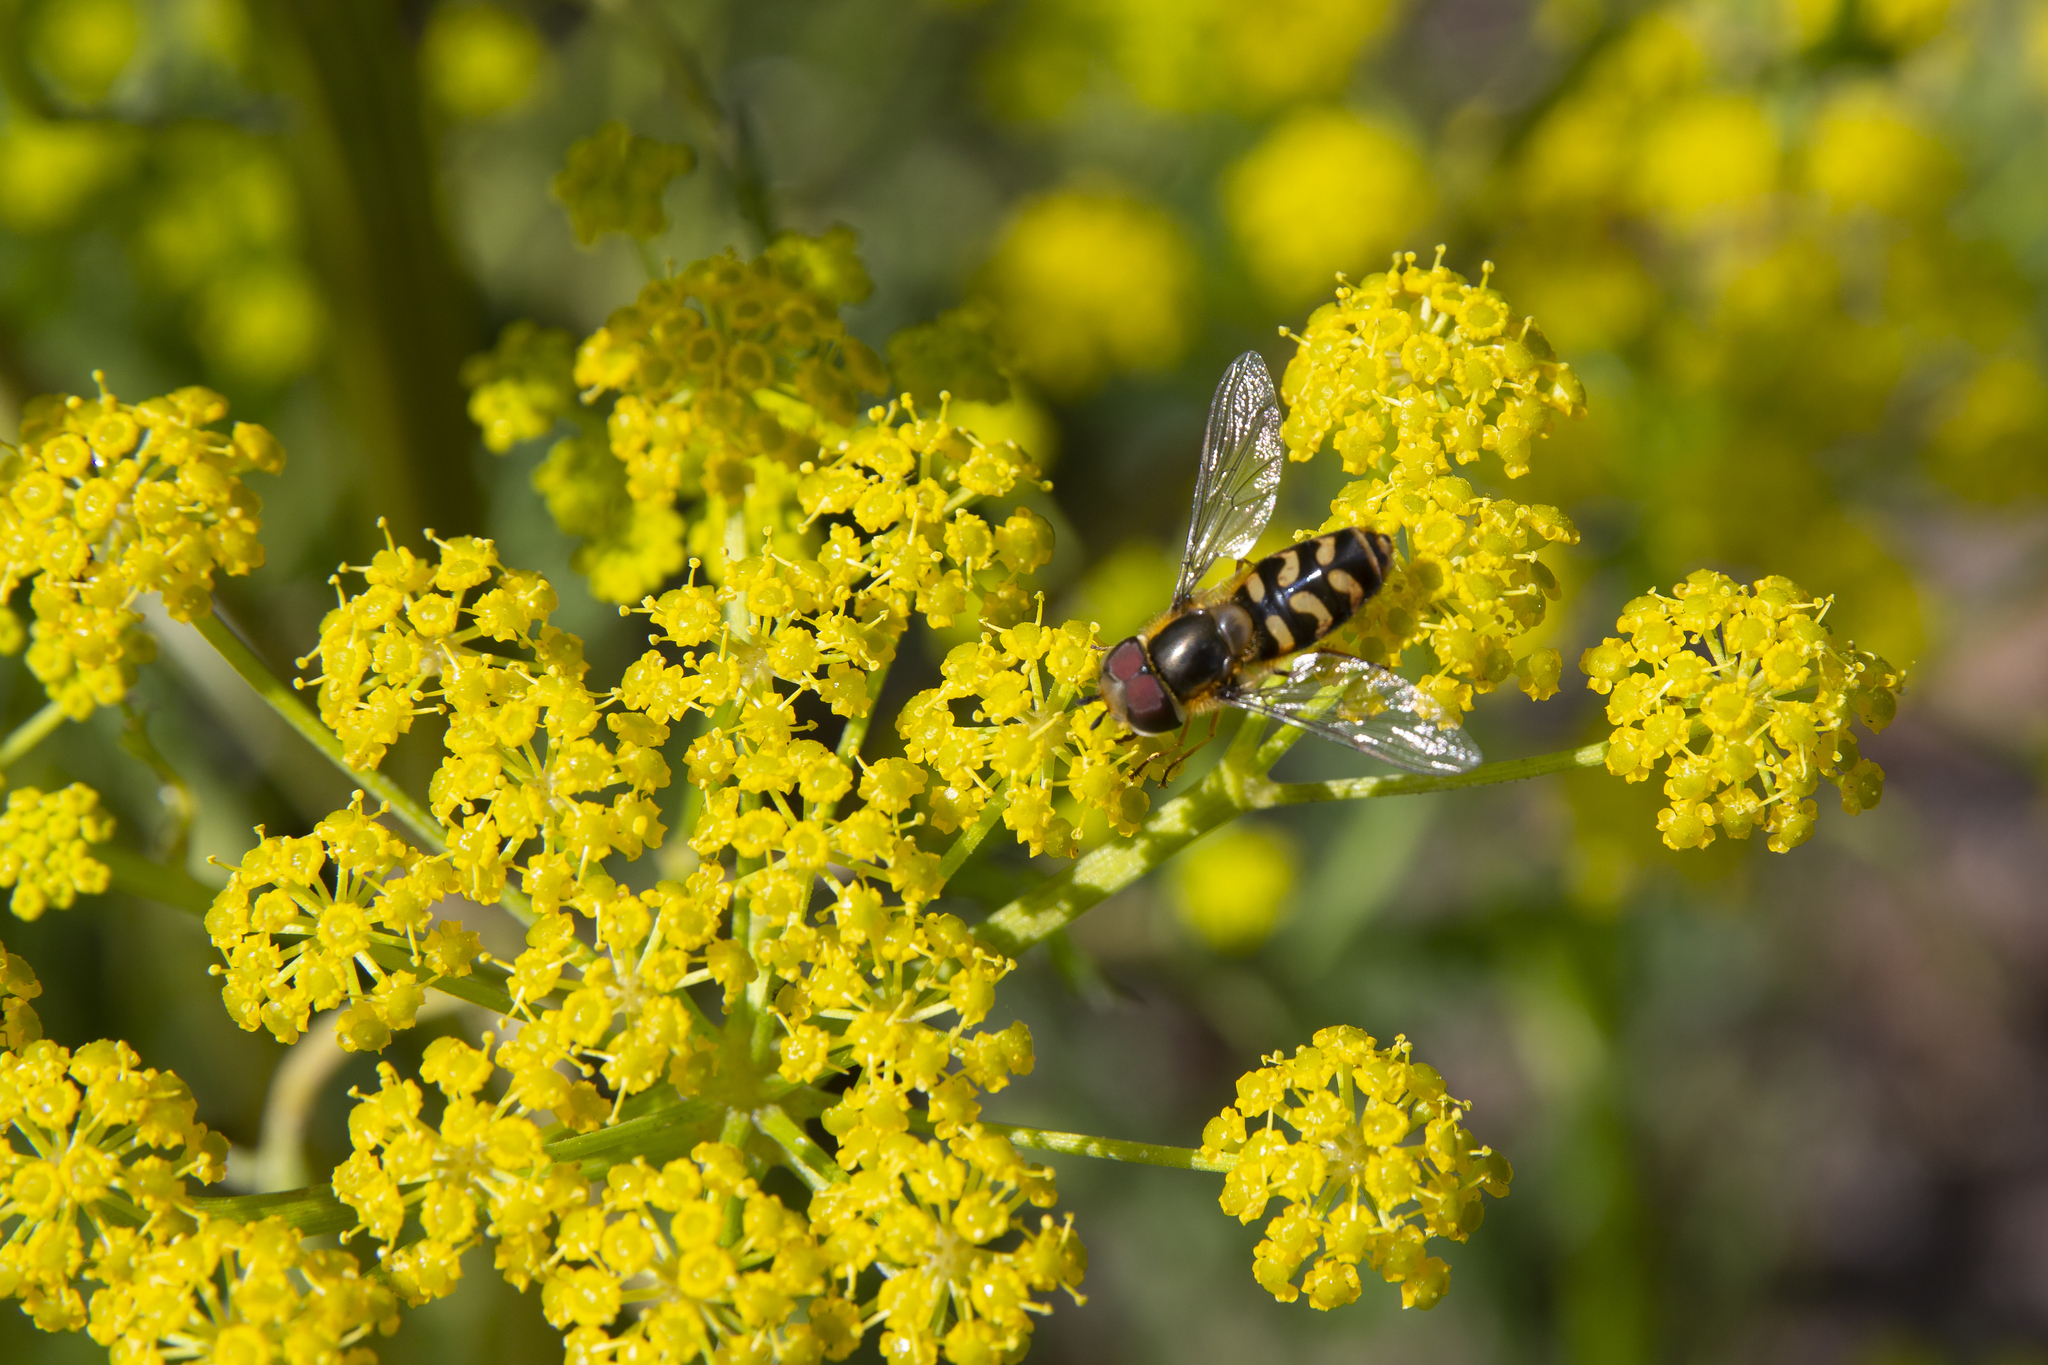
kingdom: Animalia
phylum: Arthropoda
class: Insecta
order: Diptera
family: Syrphidae
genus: Scaeva
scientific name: Scaeva selenitica
